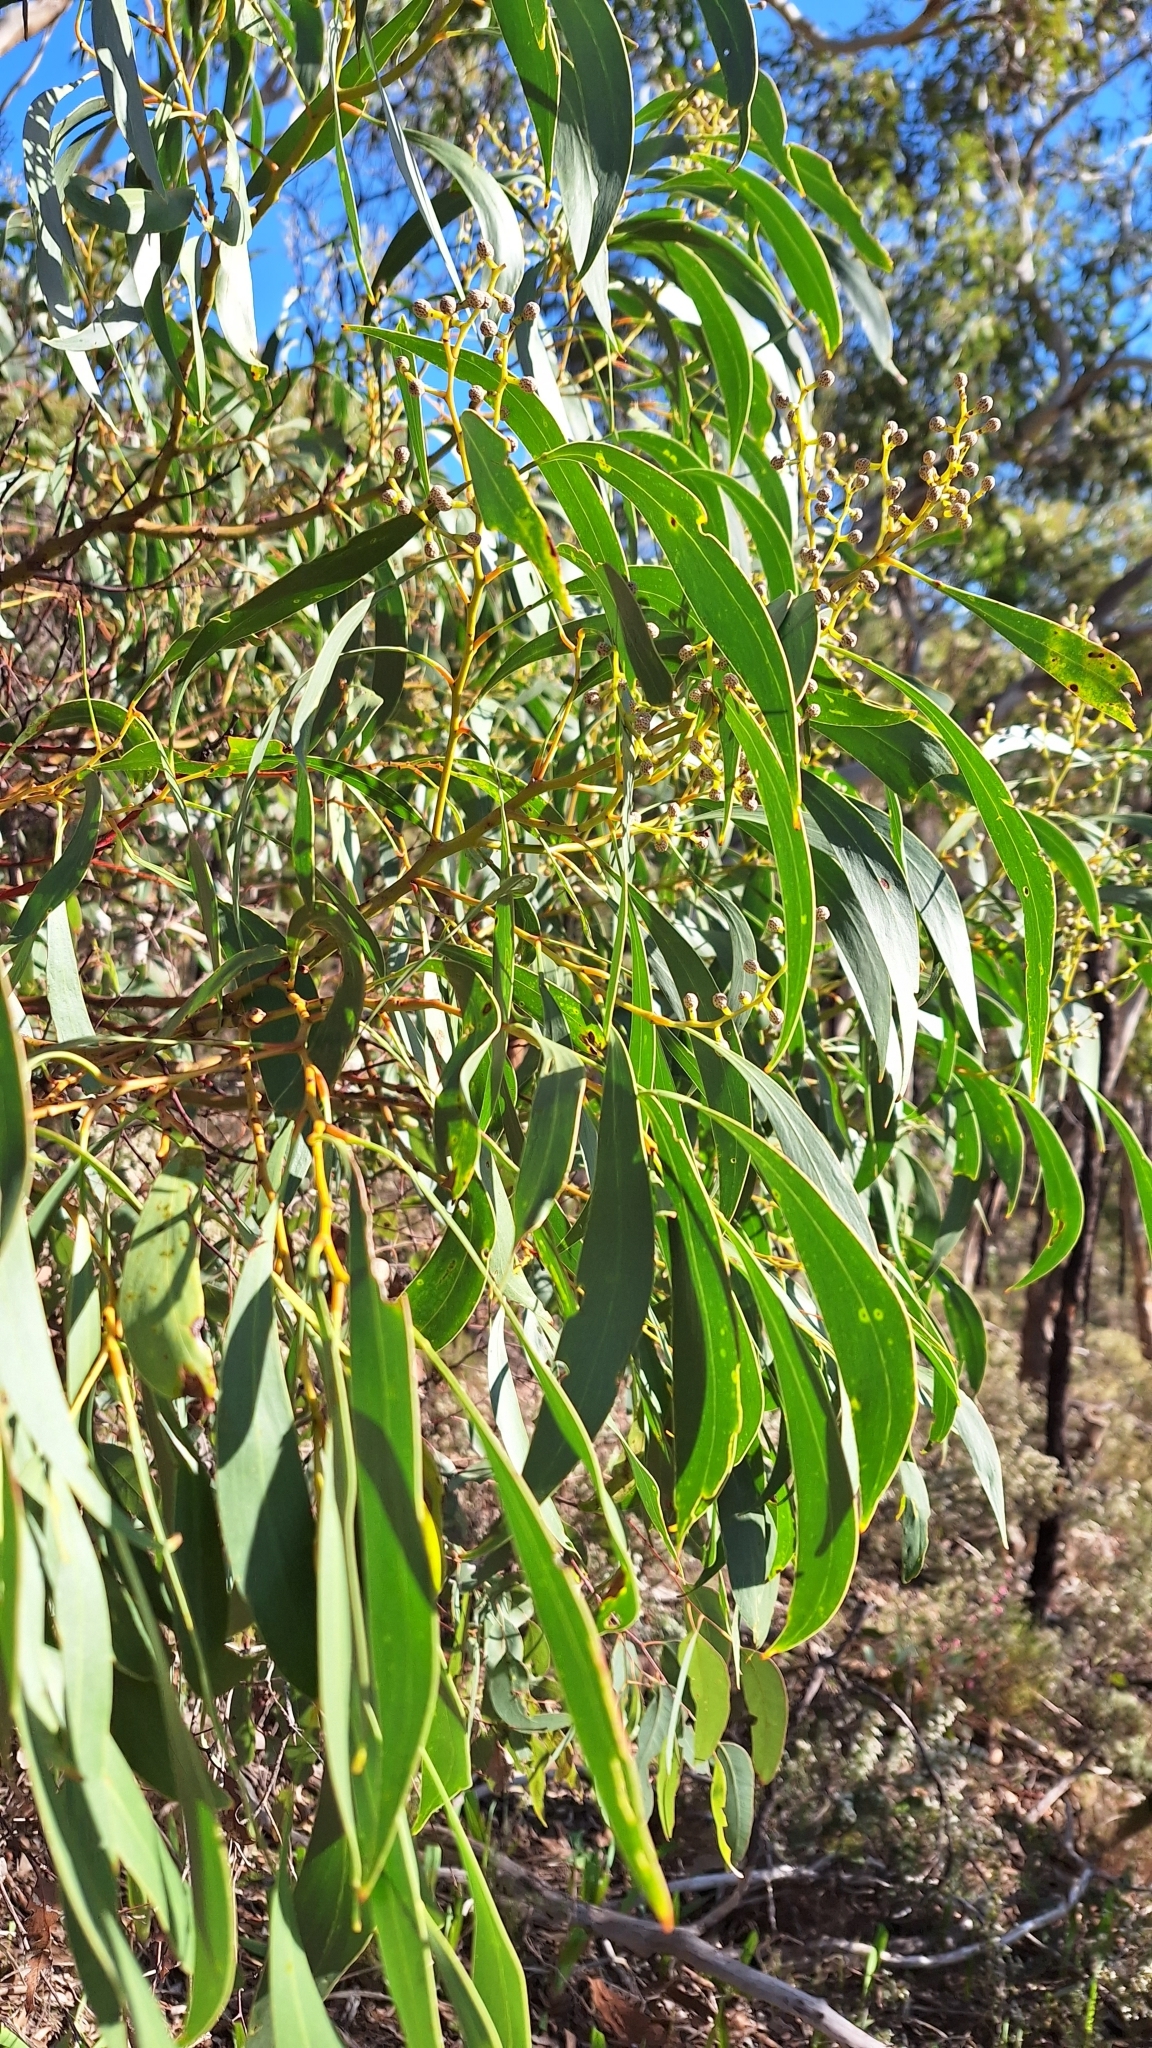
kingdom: Plantae
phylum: Tracheophyta
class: Magnoliopsida
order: Fabales
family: Fabaceae
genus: Acacia
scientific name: Acacia pycnantha
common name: Golden wattle
